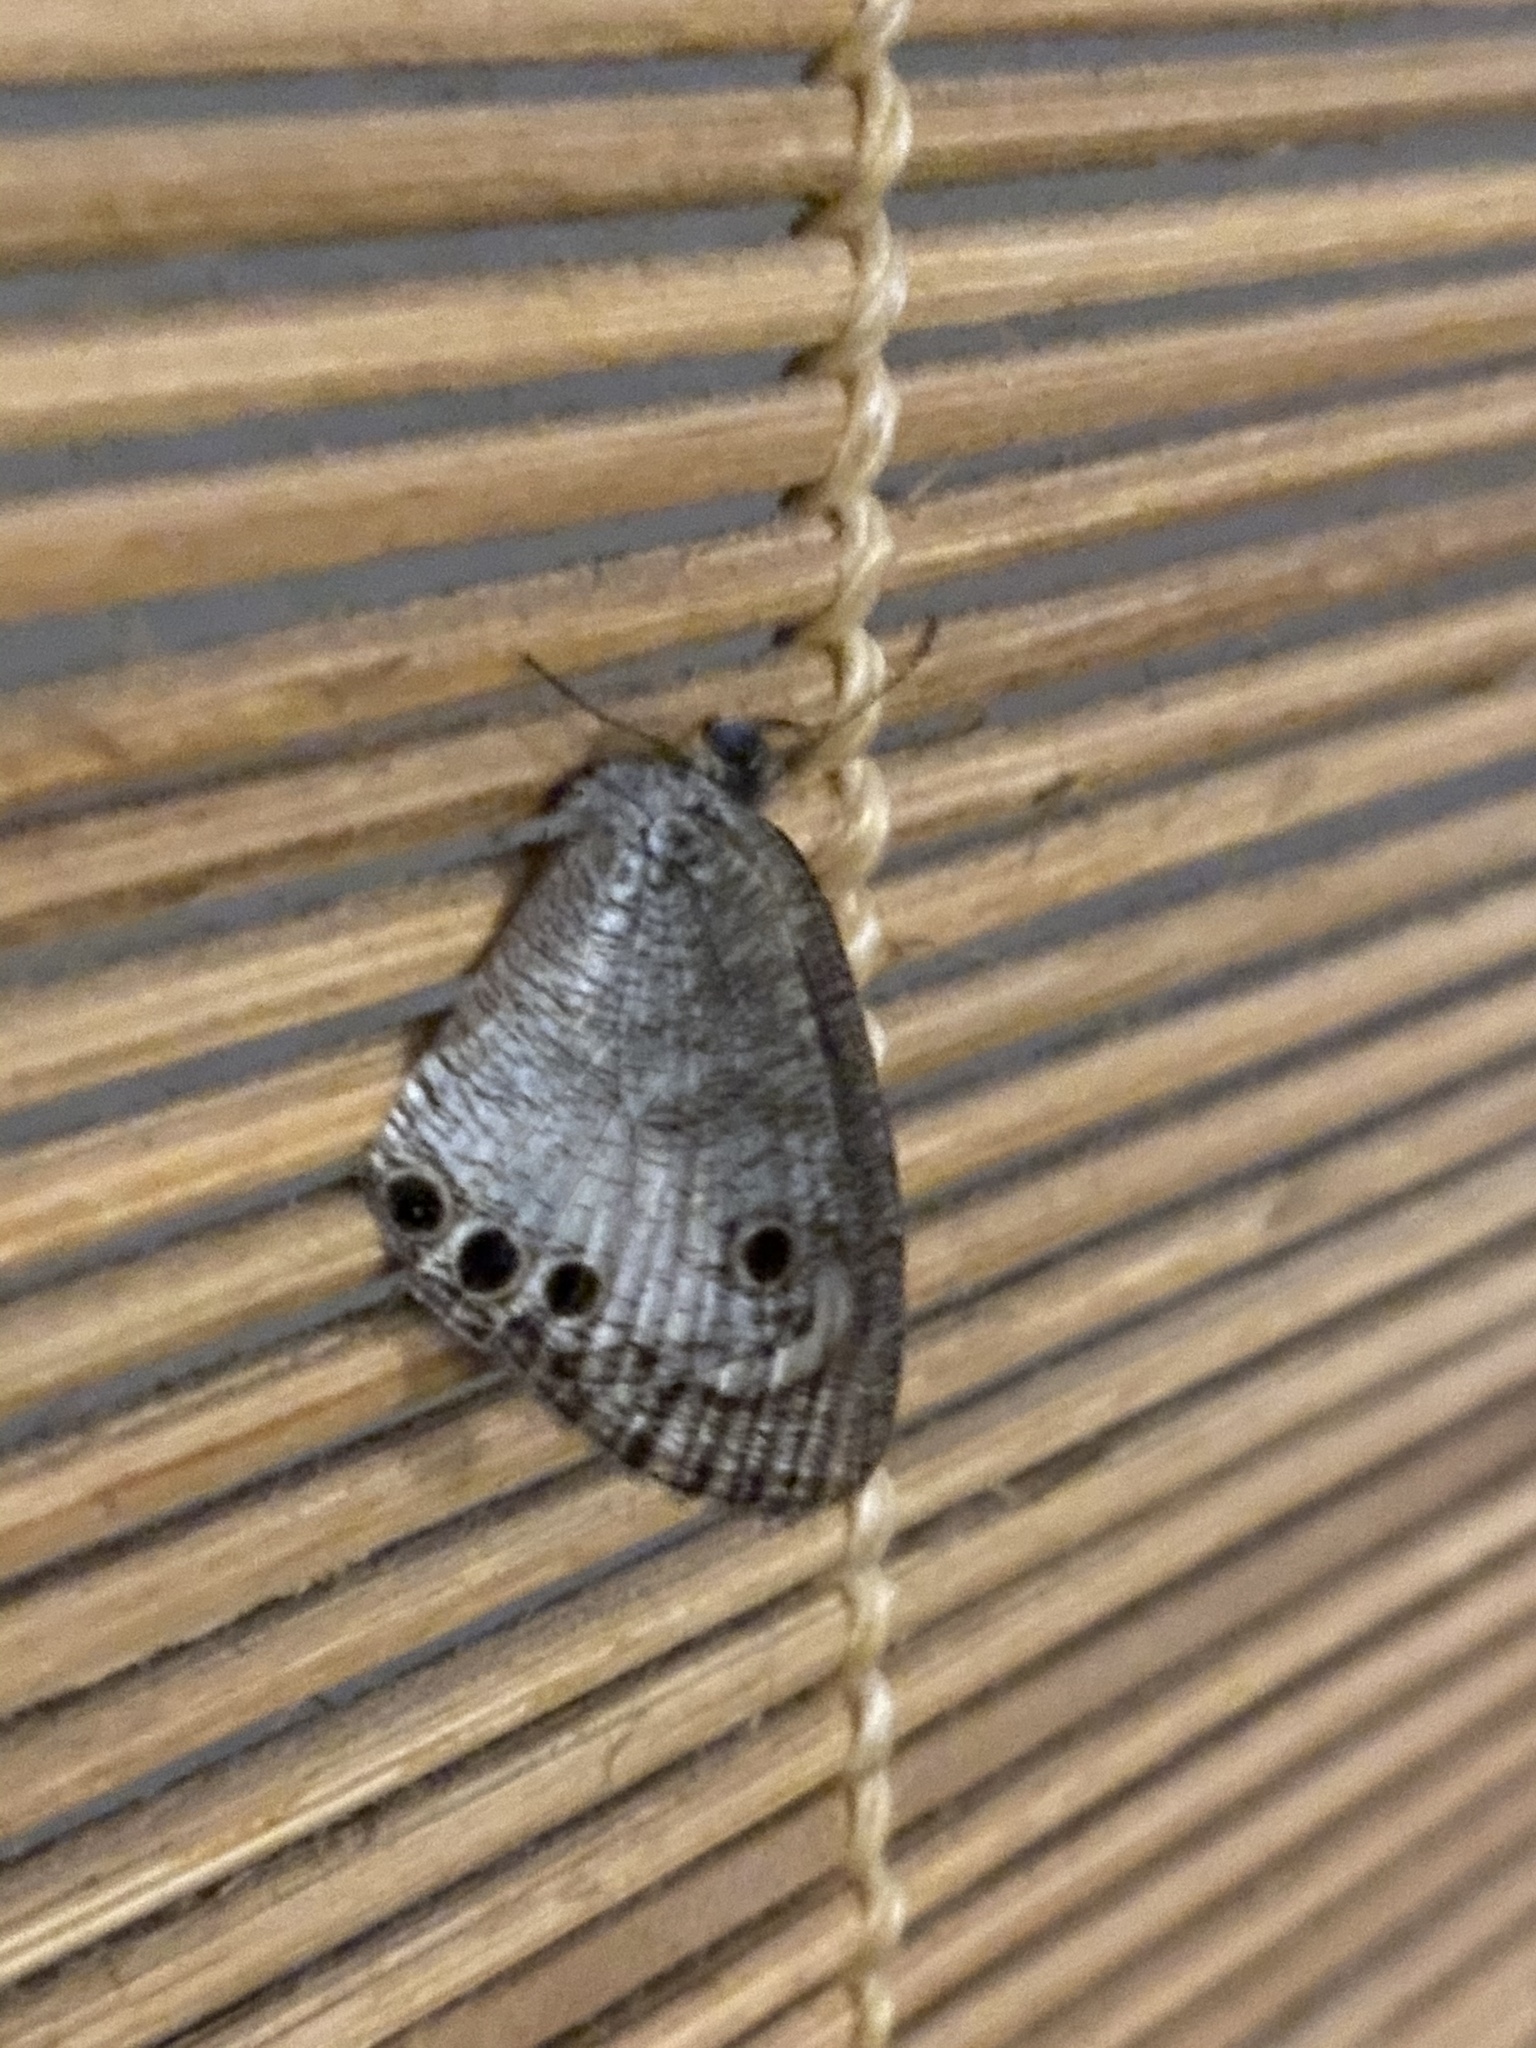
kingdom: Animalia
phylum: Arthropoda
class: Insecta
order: Lepidoptera
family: Nymphalidae
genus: Ypthima
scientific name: Ypthima ceylonica
